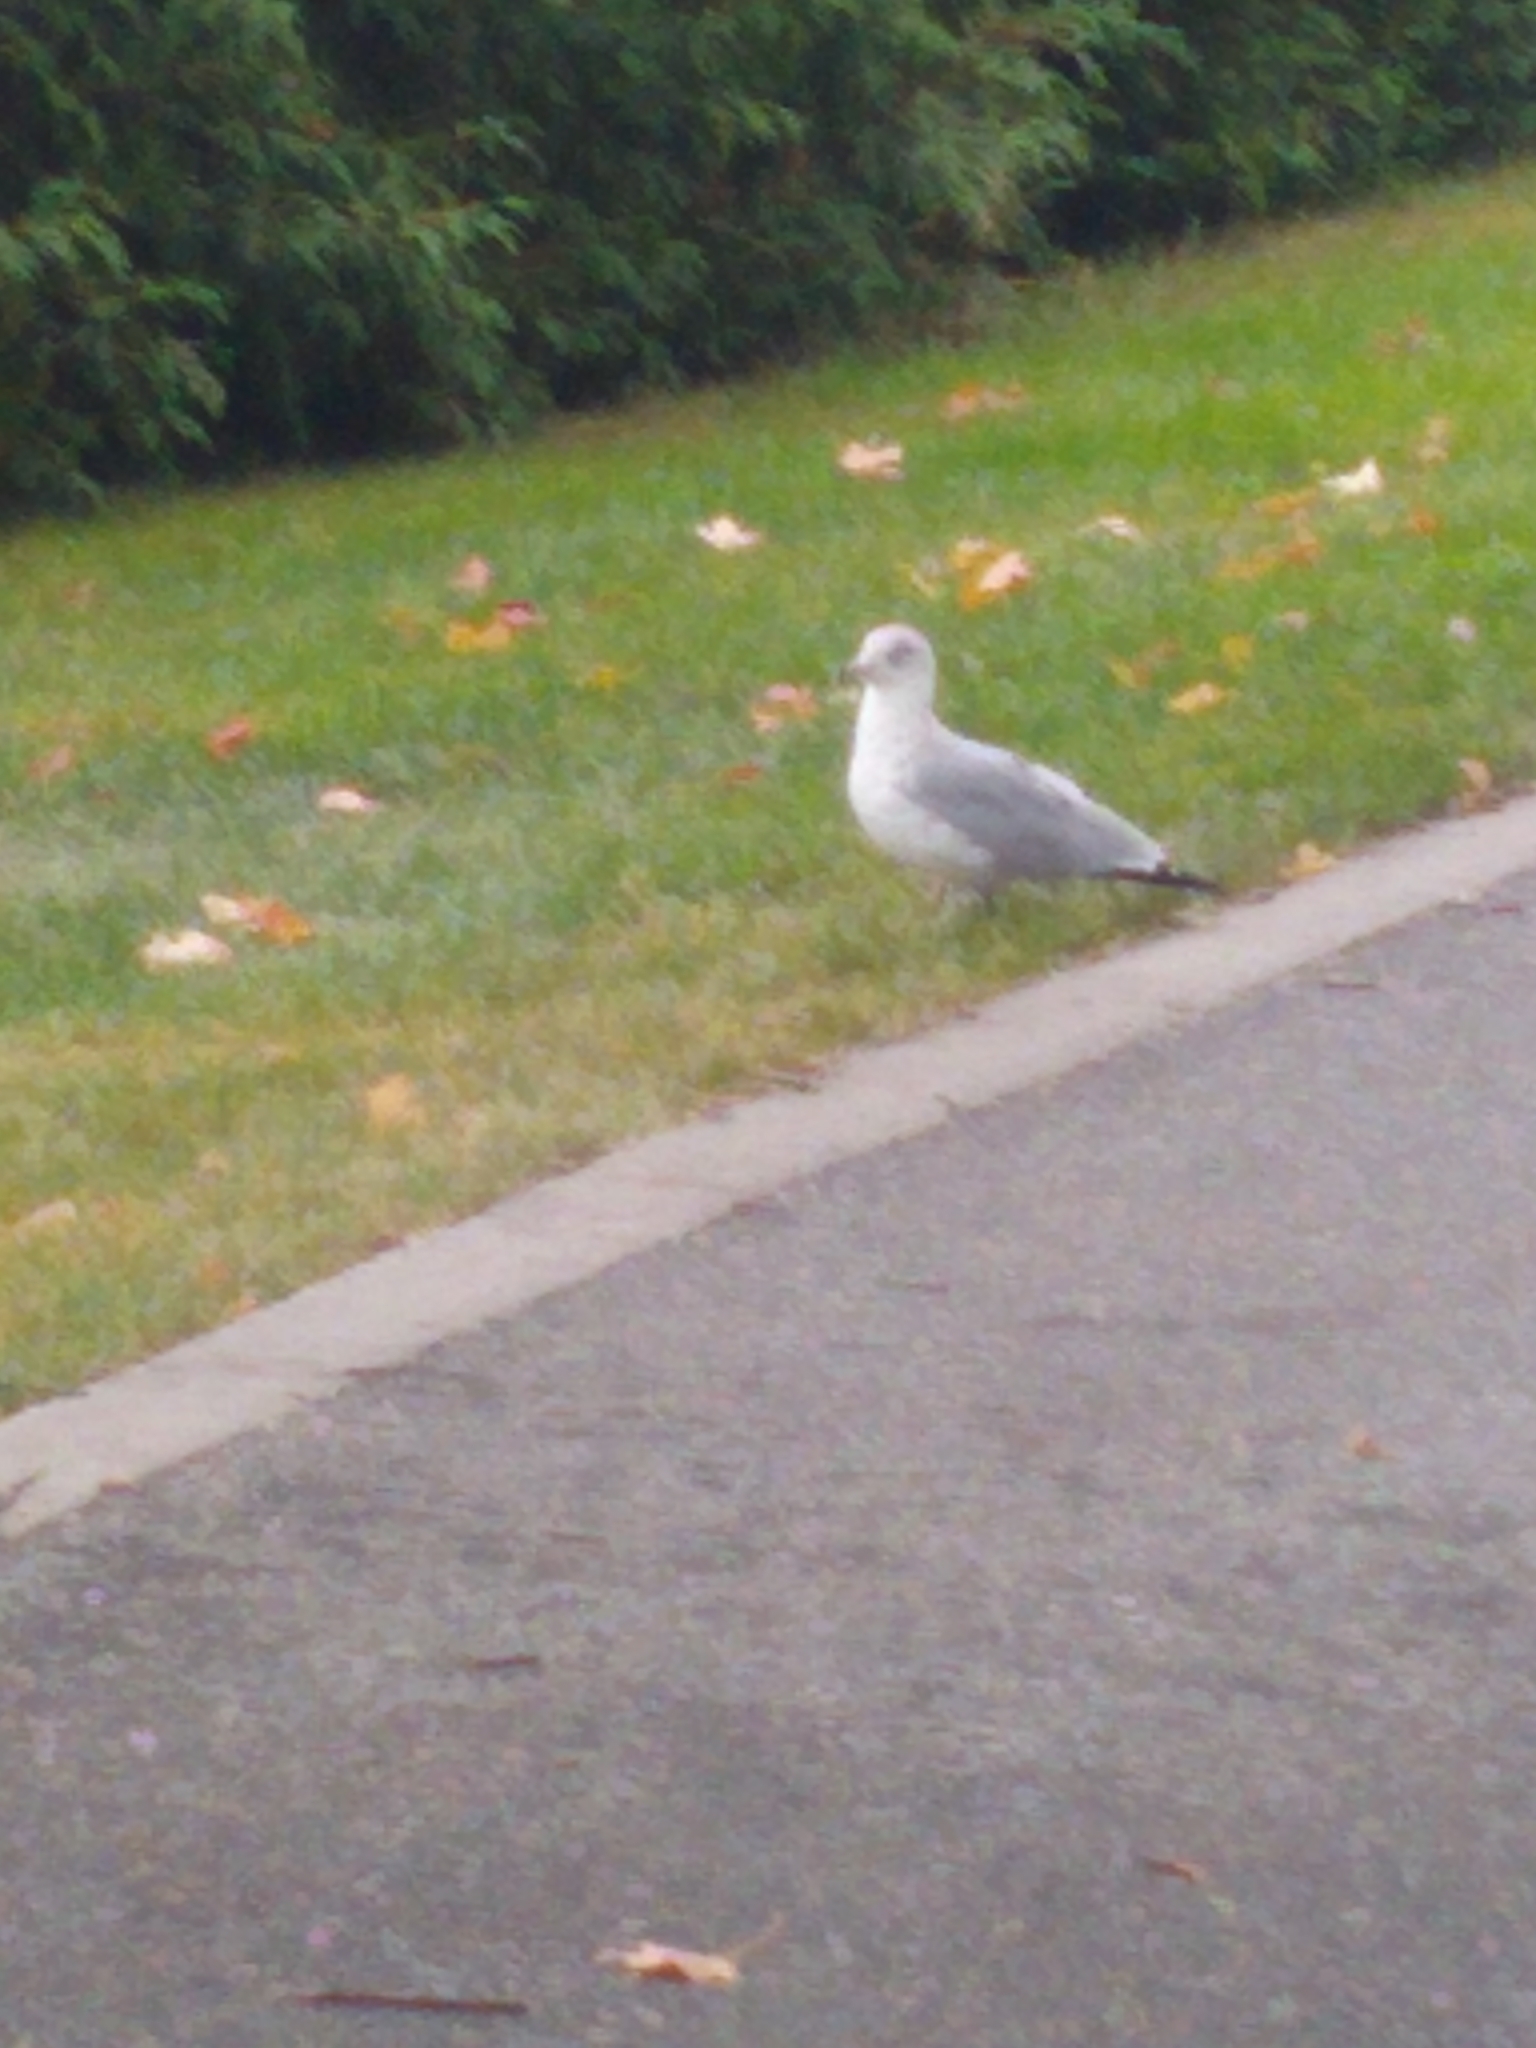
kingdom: Animalia
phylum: Chordata
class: Aves
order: Charadriiformes
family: Laridae
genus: Larus
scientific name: Larus delawarensis
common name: Ring-billed gull
